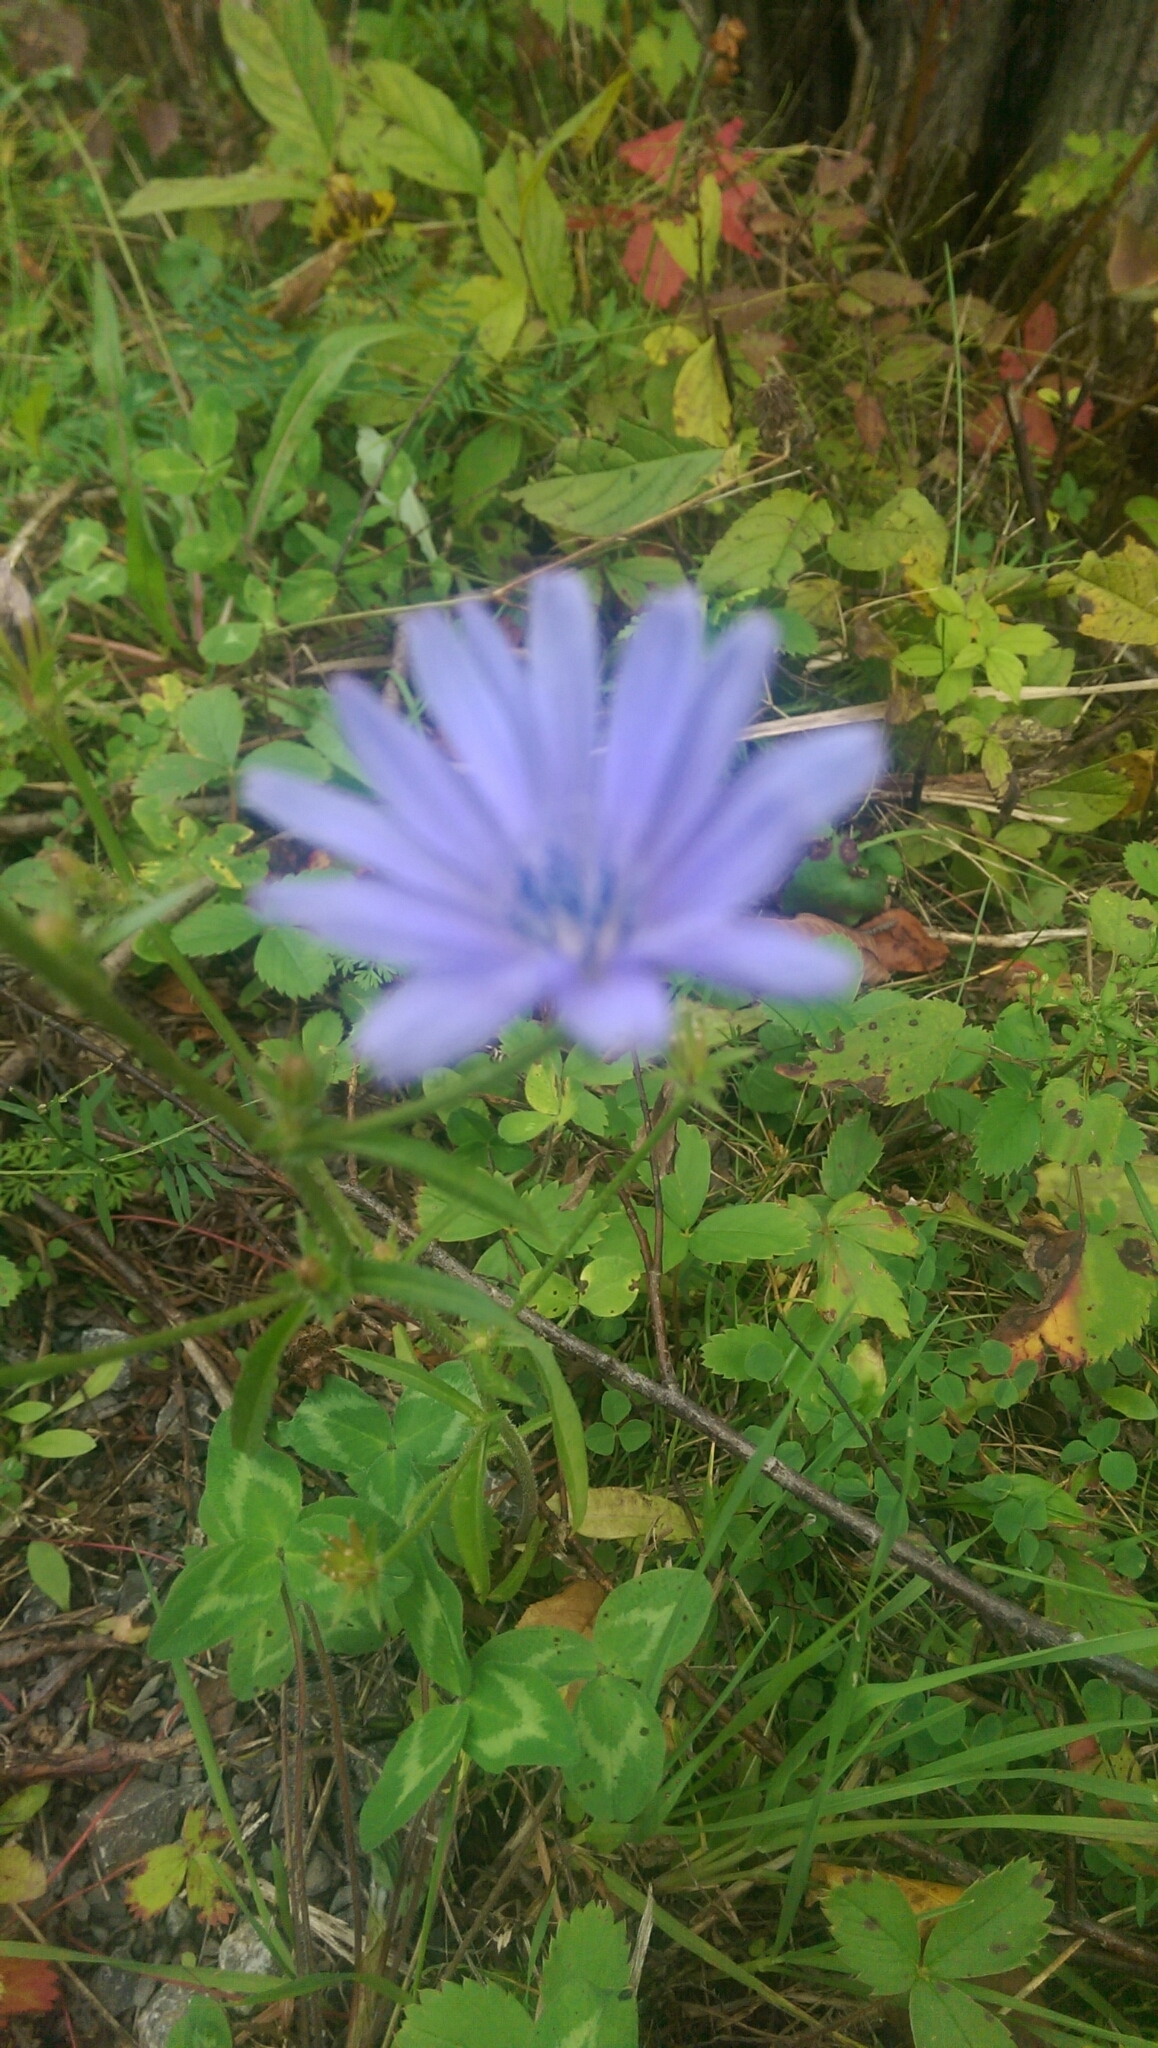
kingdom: Plantae
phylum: Tracheophyta
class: Magnoliopsida
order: Asterales
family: Asteraceae
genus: Cichorium
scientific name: Cichorium intybus
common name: Chicory
